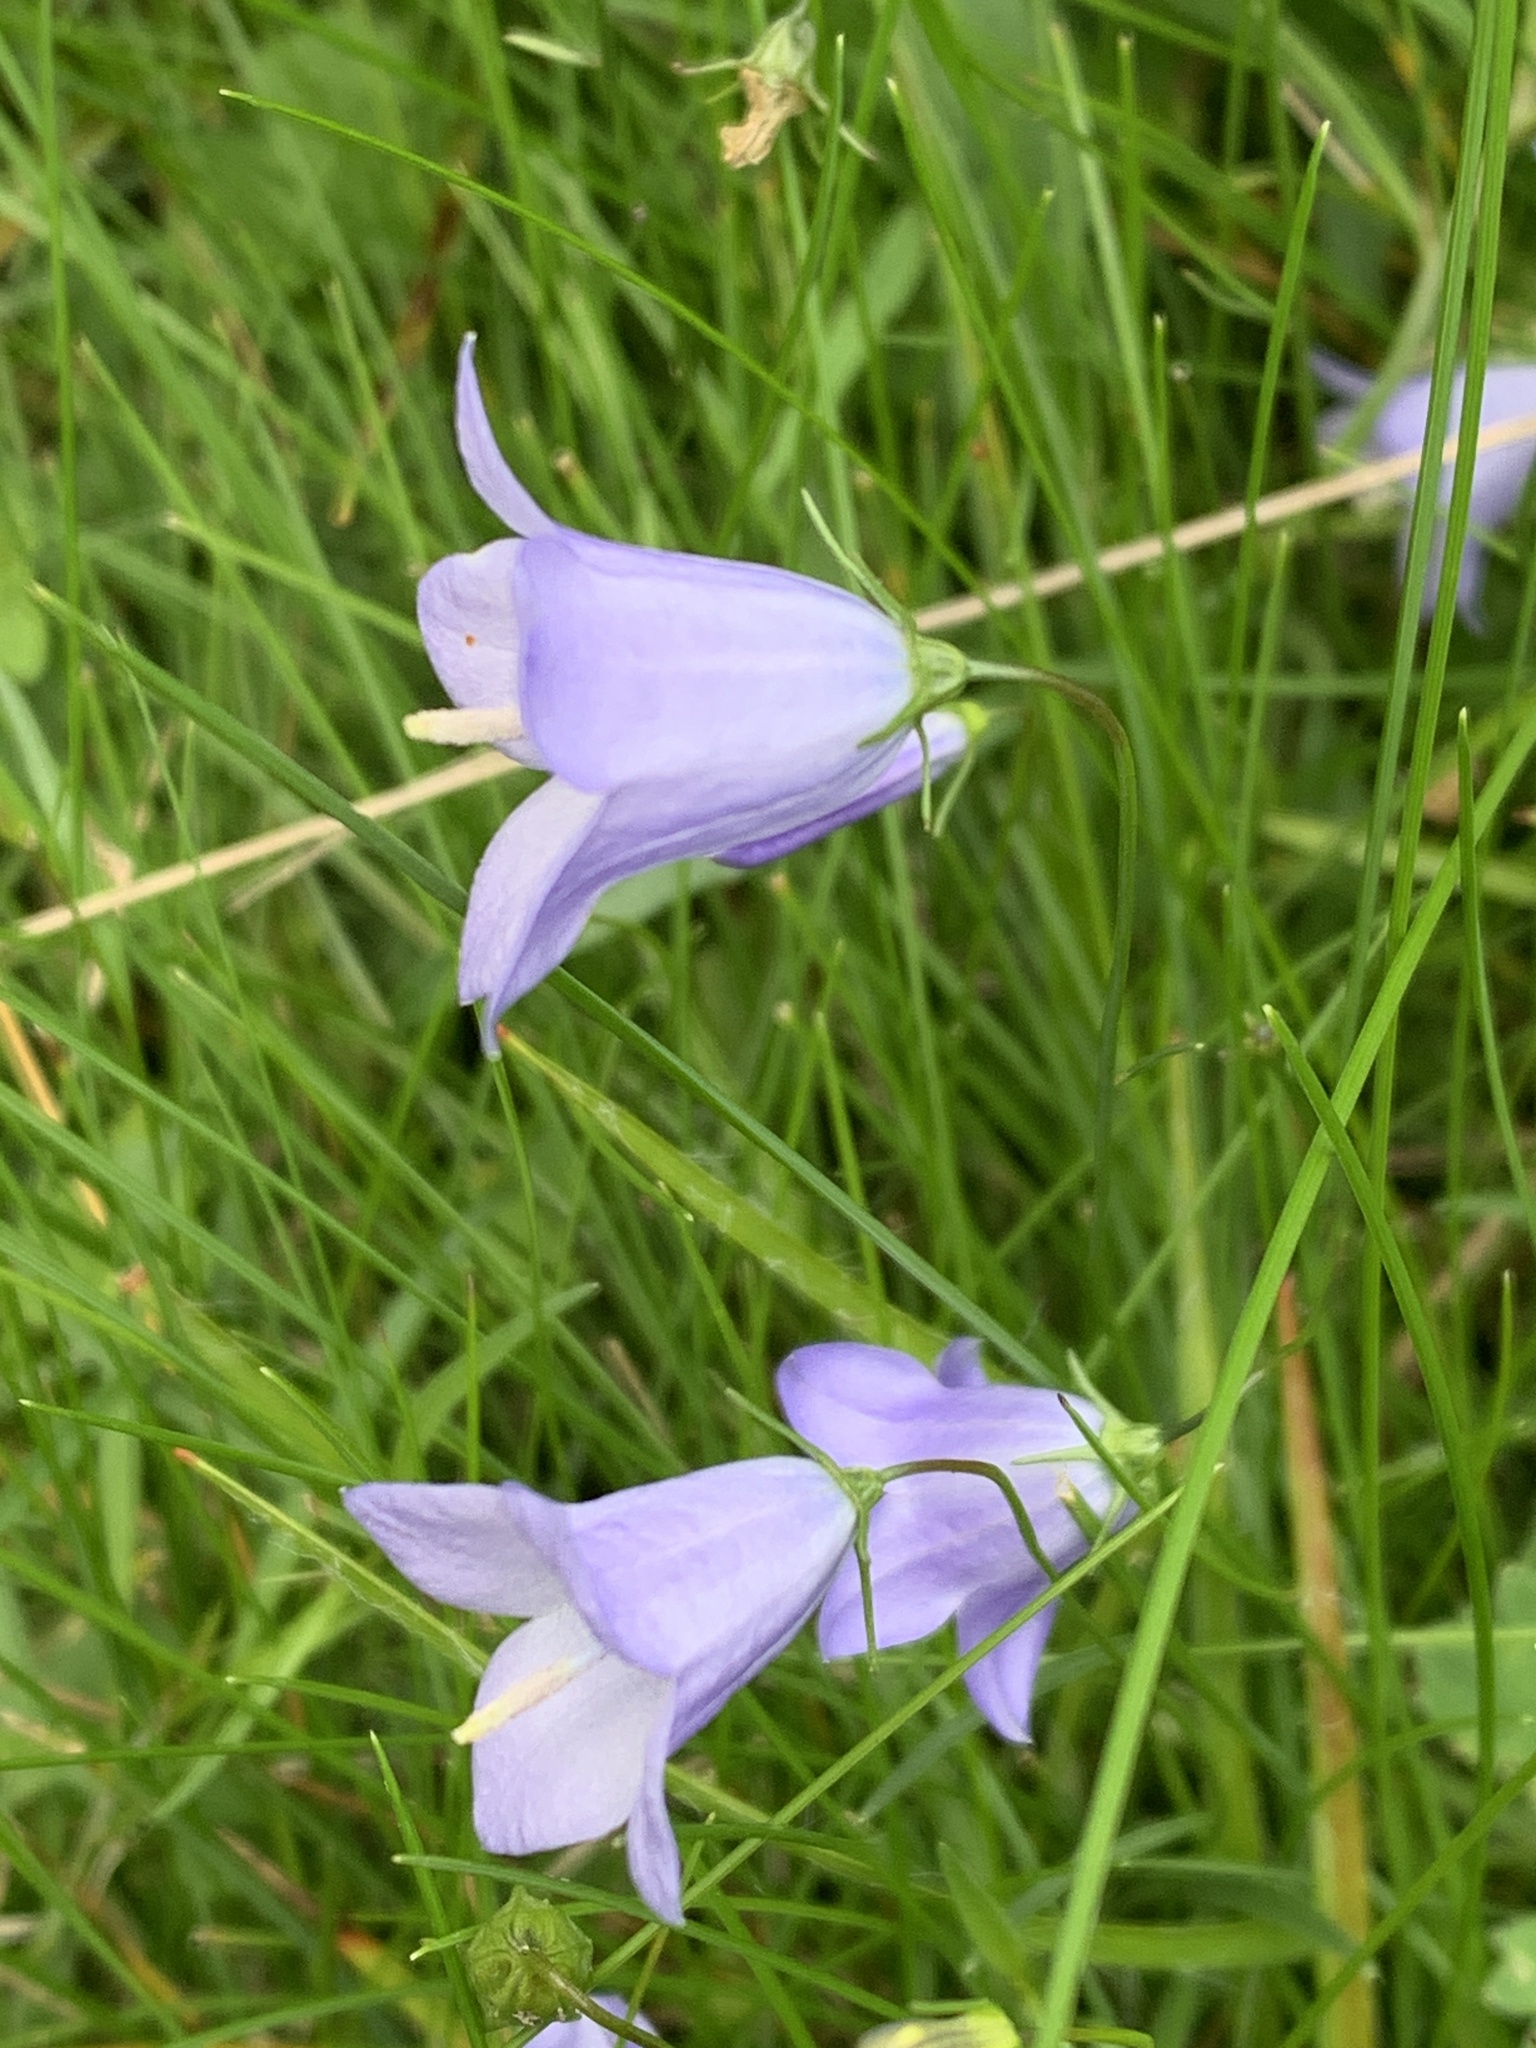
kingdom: Plantae
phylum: Tracheophyta
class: Magnoliopsida
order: Asterales
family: Campanulaceae
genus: Campanula
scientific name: Campanula rotundifolia
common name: Harebell
